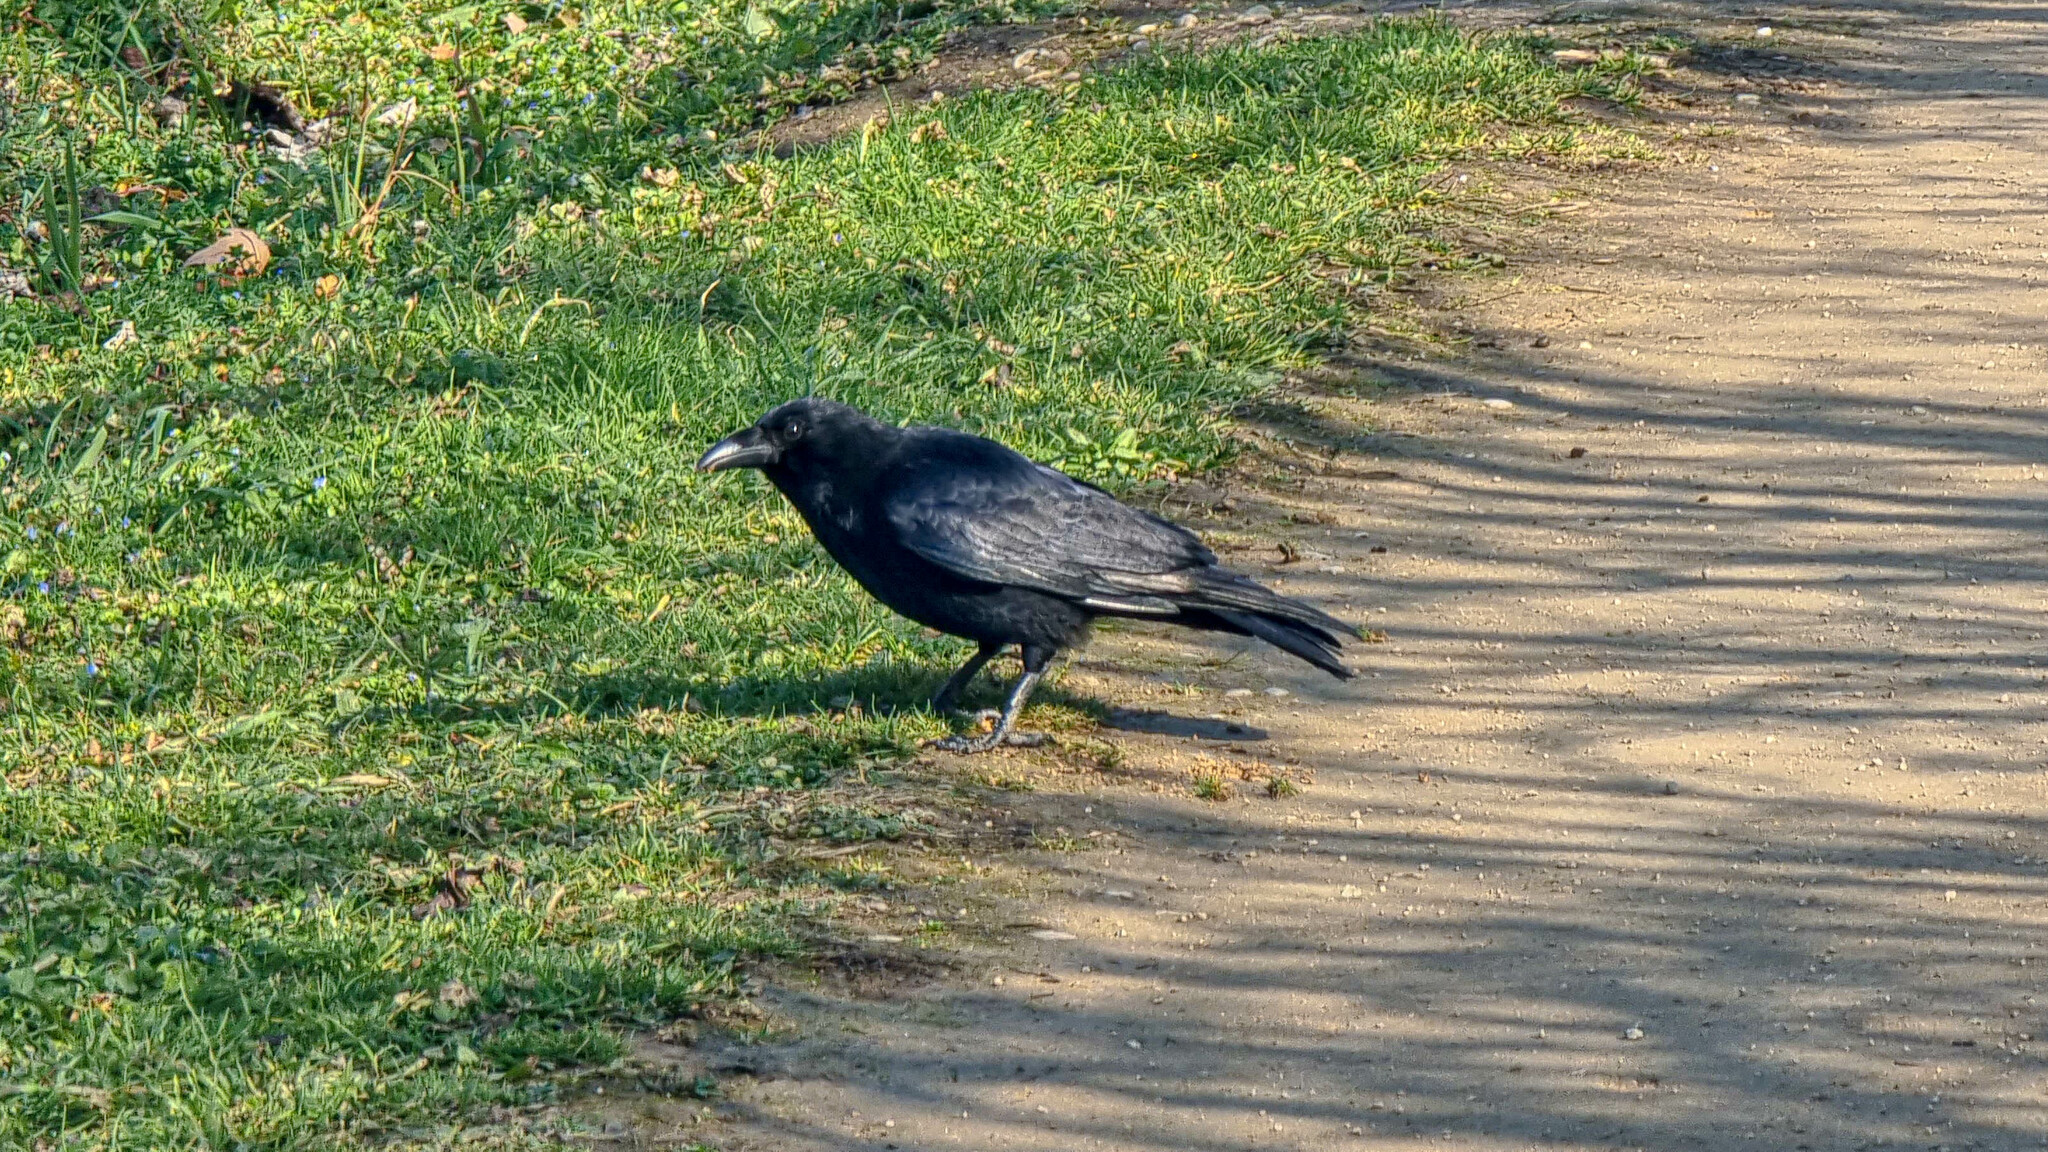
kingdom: Animalia
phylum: Chordata
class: Aves
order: Passeriformes
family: Corvidae
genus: Corvus
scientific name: Corvus corone
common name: Carrion crow
